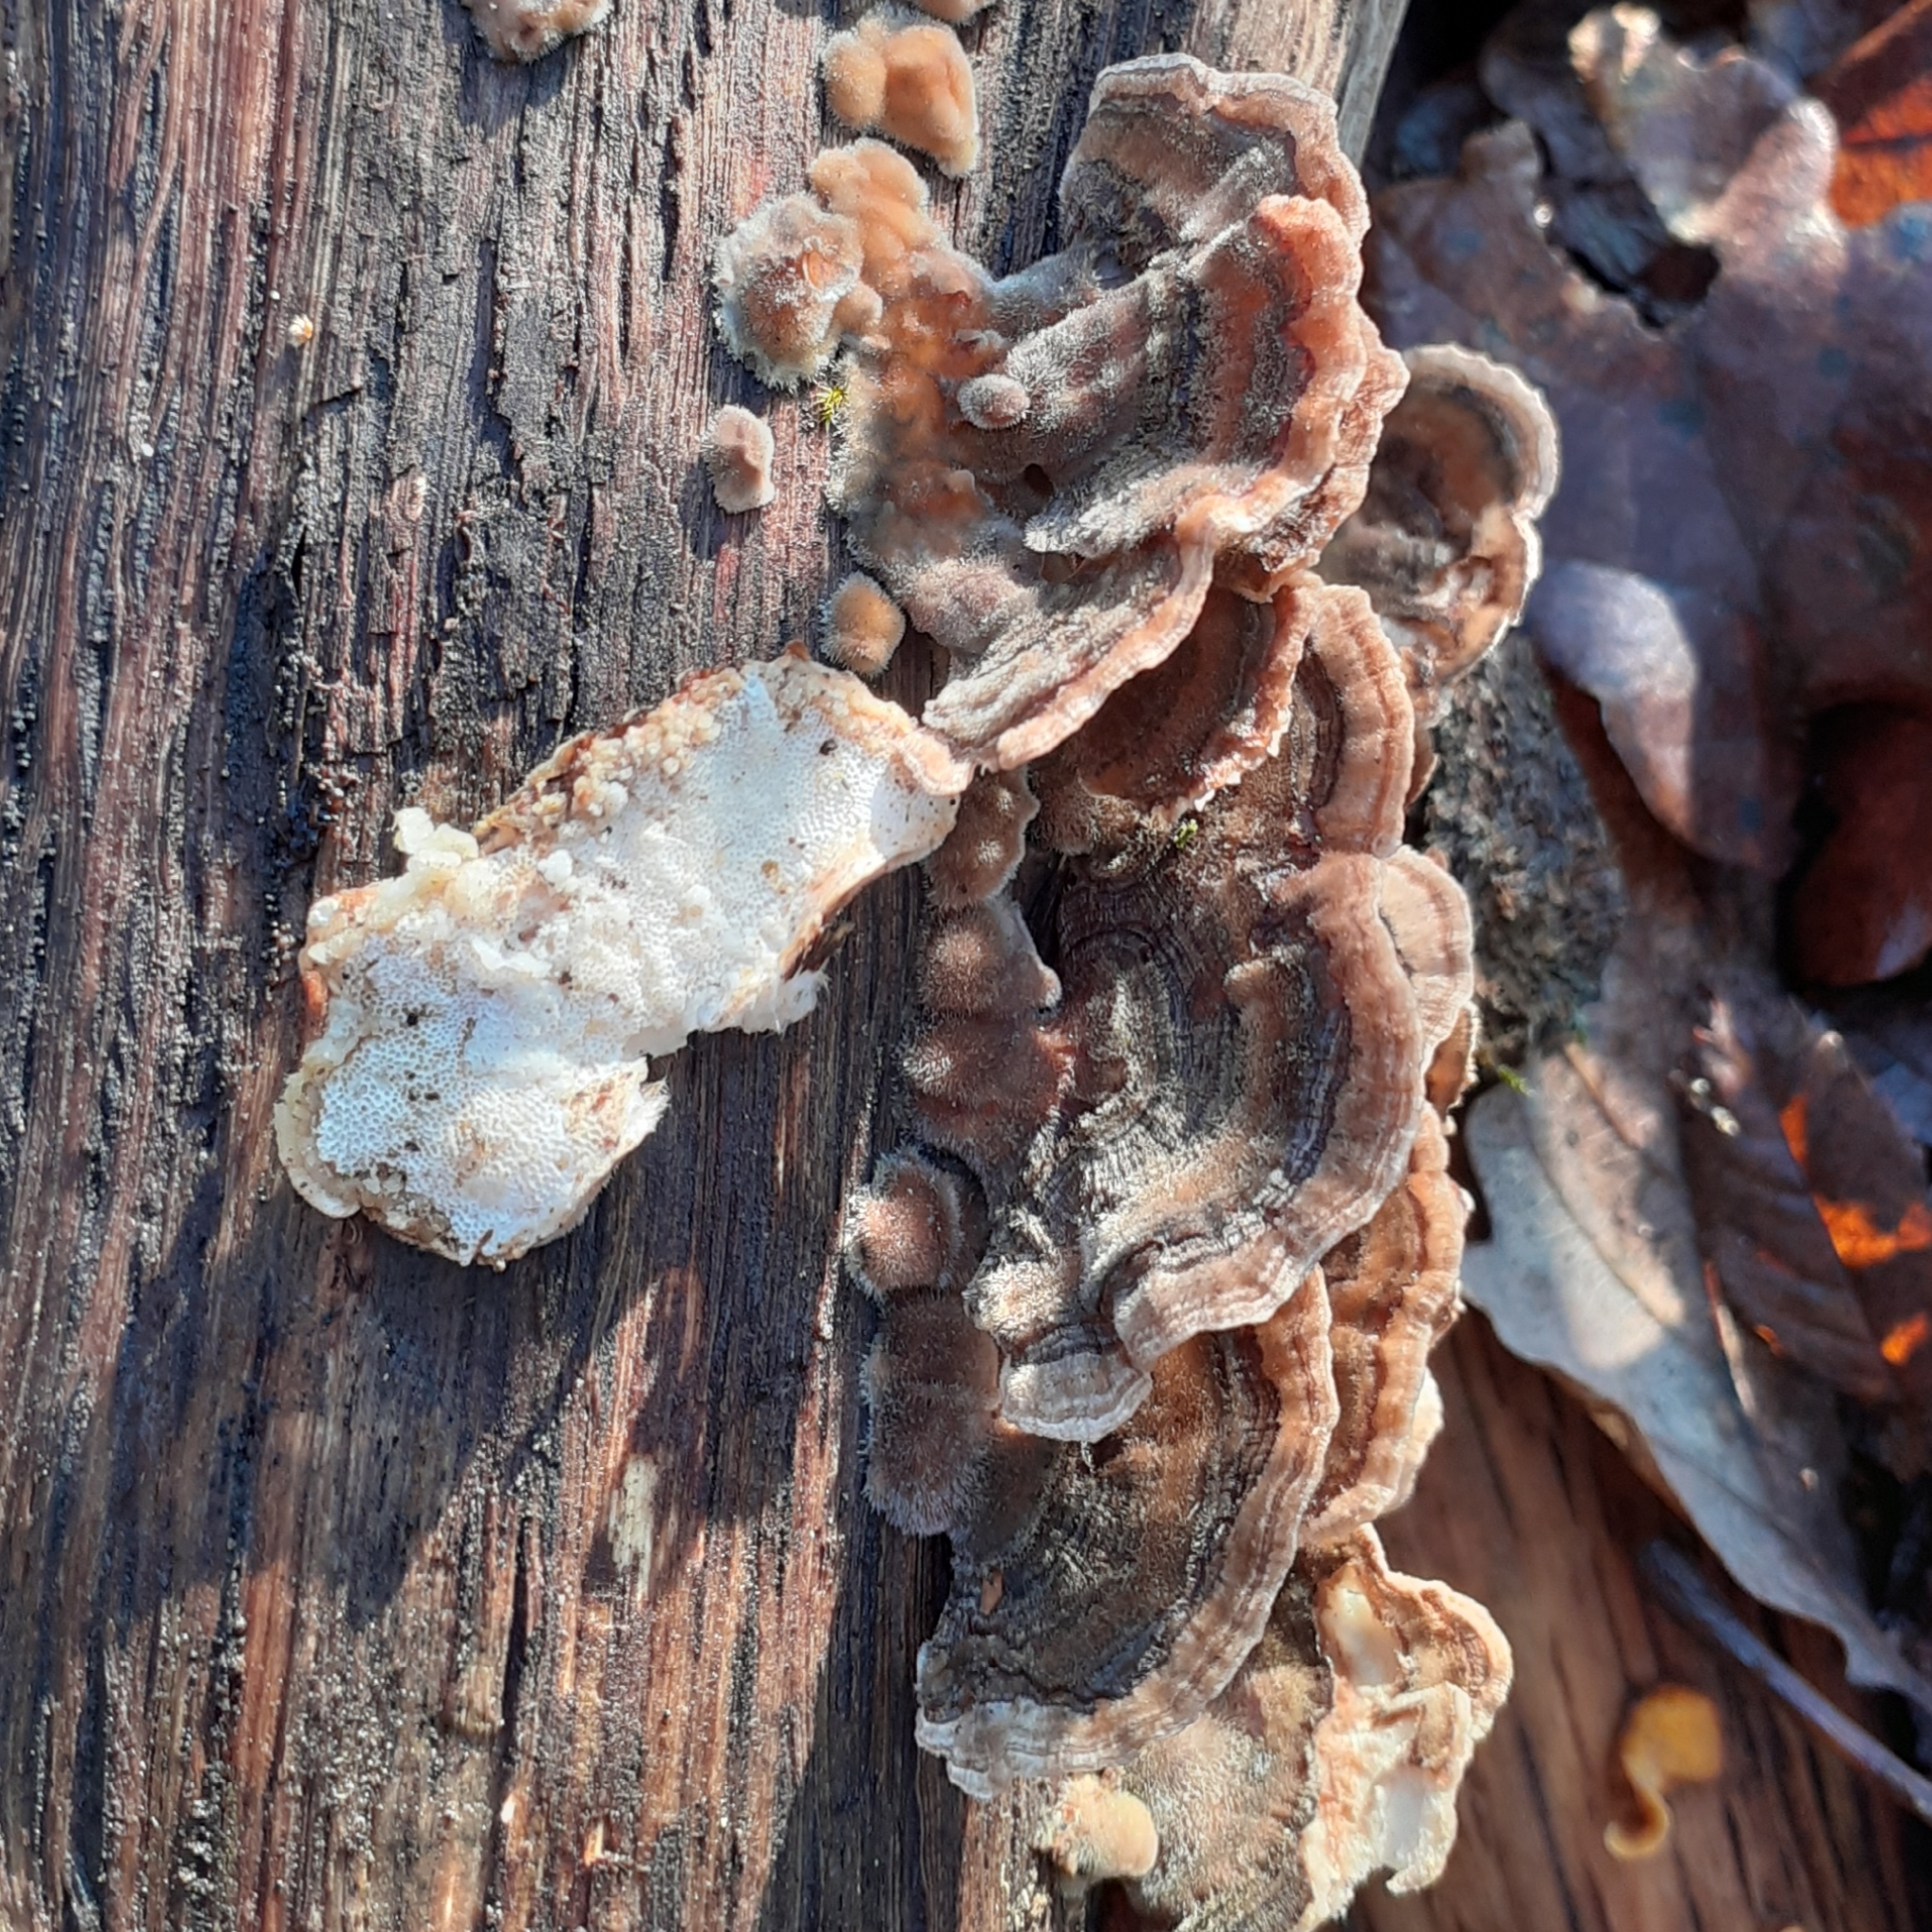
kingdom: Fungi
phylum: Basidiomycota
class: Agaricomycetes
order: Polyporales
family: Polyporaceae
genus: Trametes
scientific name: Trametes versicolor
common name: Turkeytail
